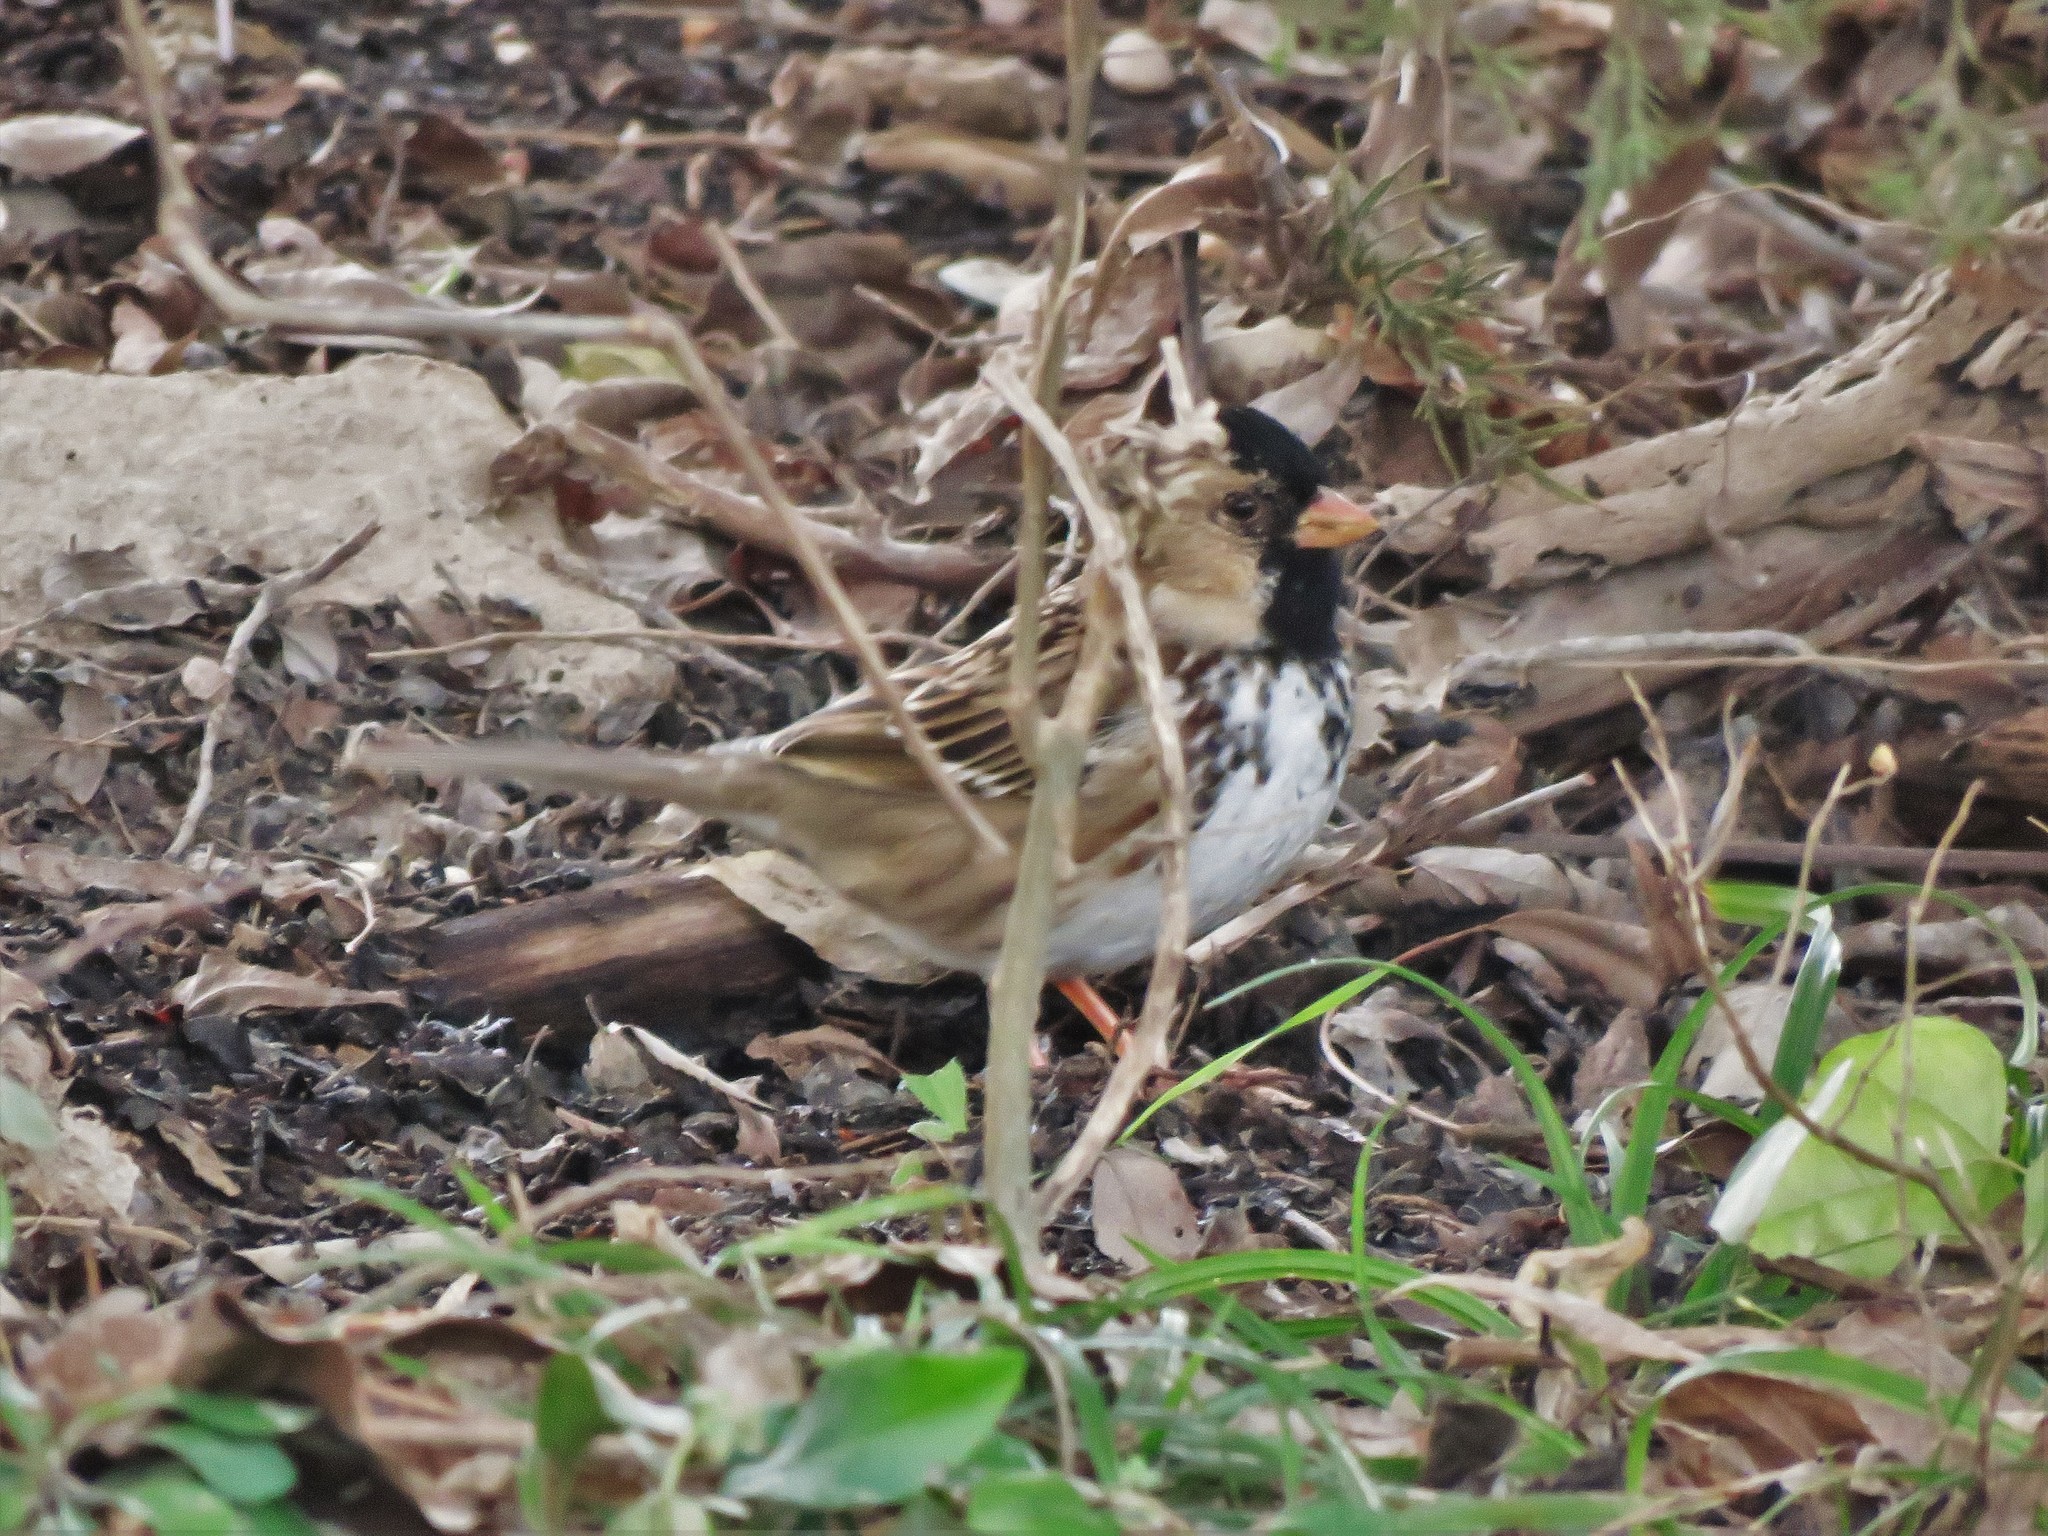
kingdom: Animalia
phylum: Chordata
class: Aves
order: Passeriformes
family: Passerellidae
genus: Zonotrichia
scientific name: Zonotrichia querula
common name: Harris's sparrow
